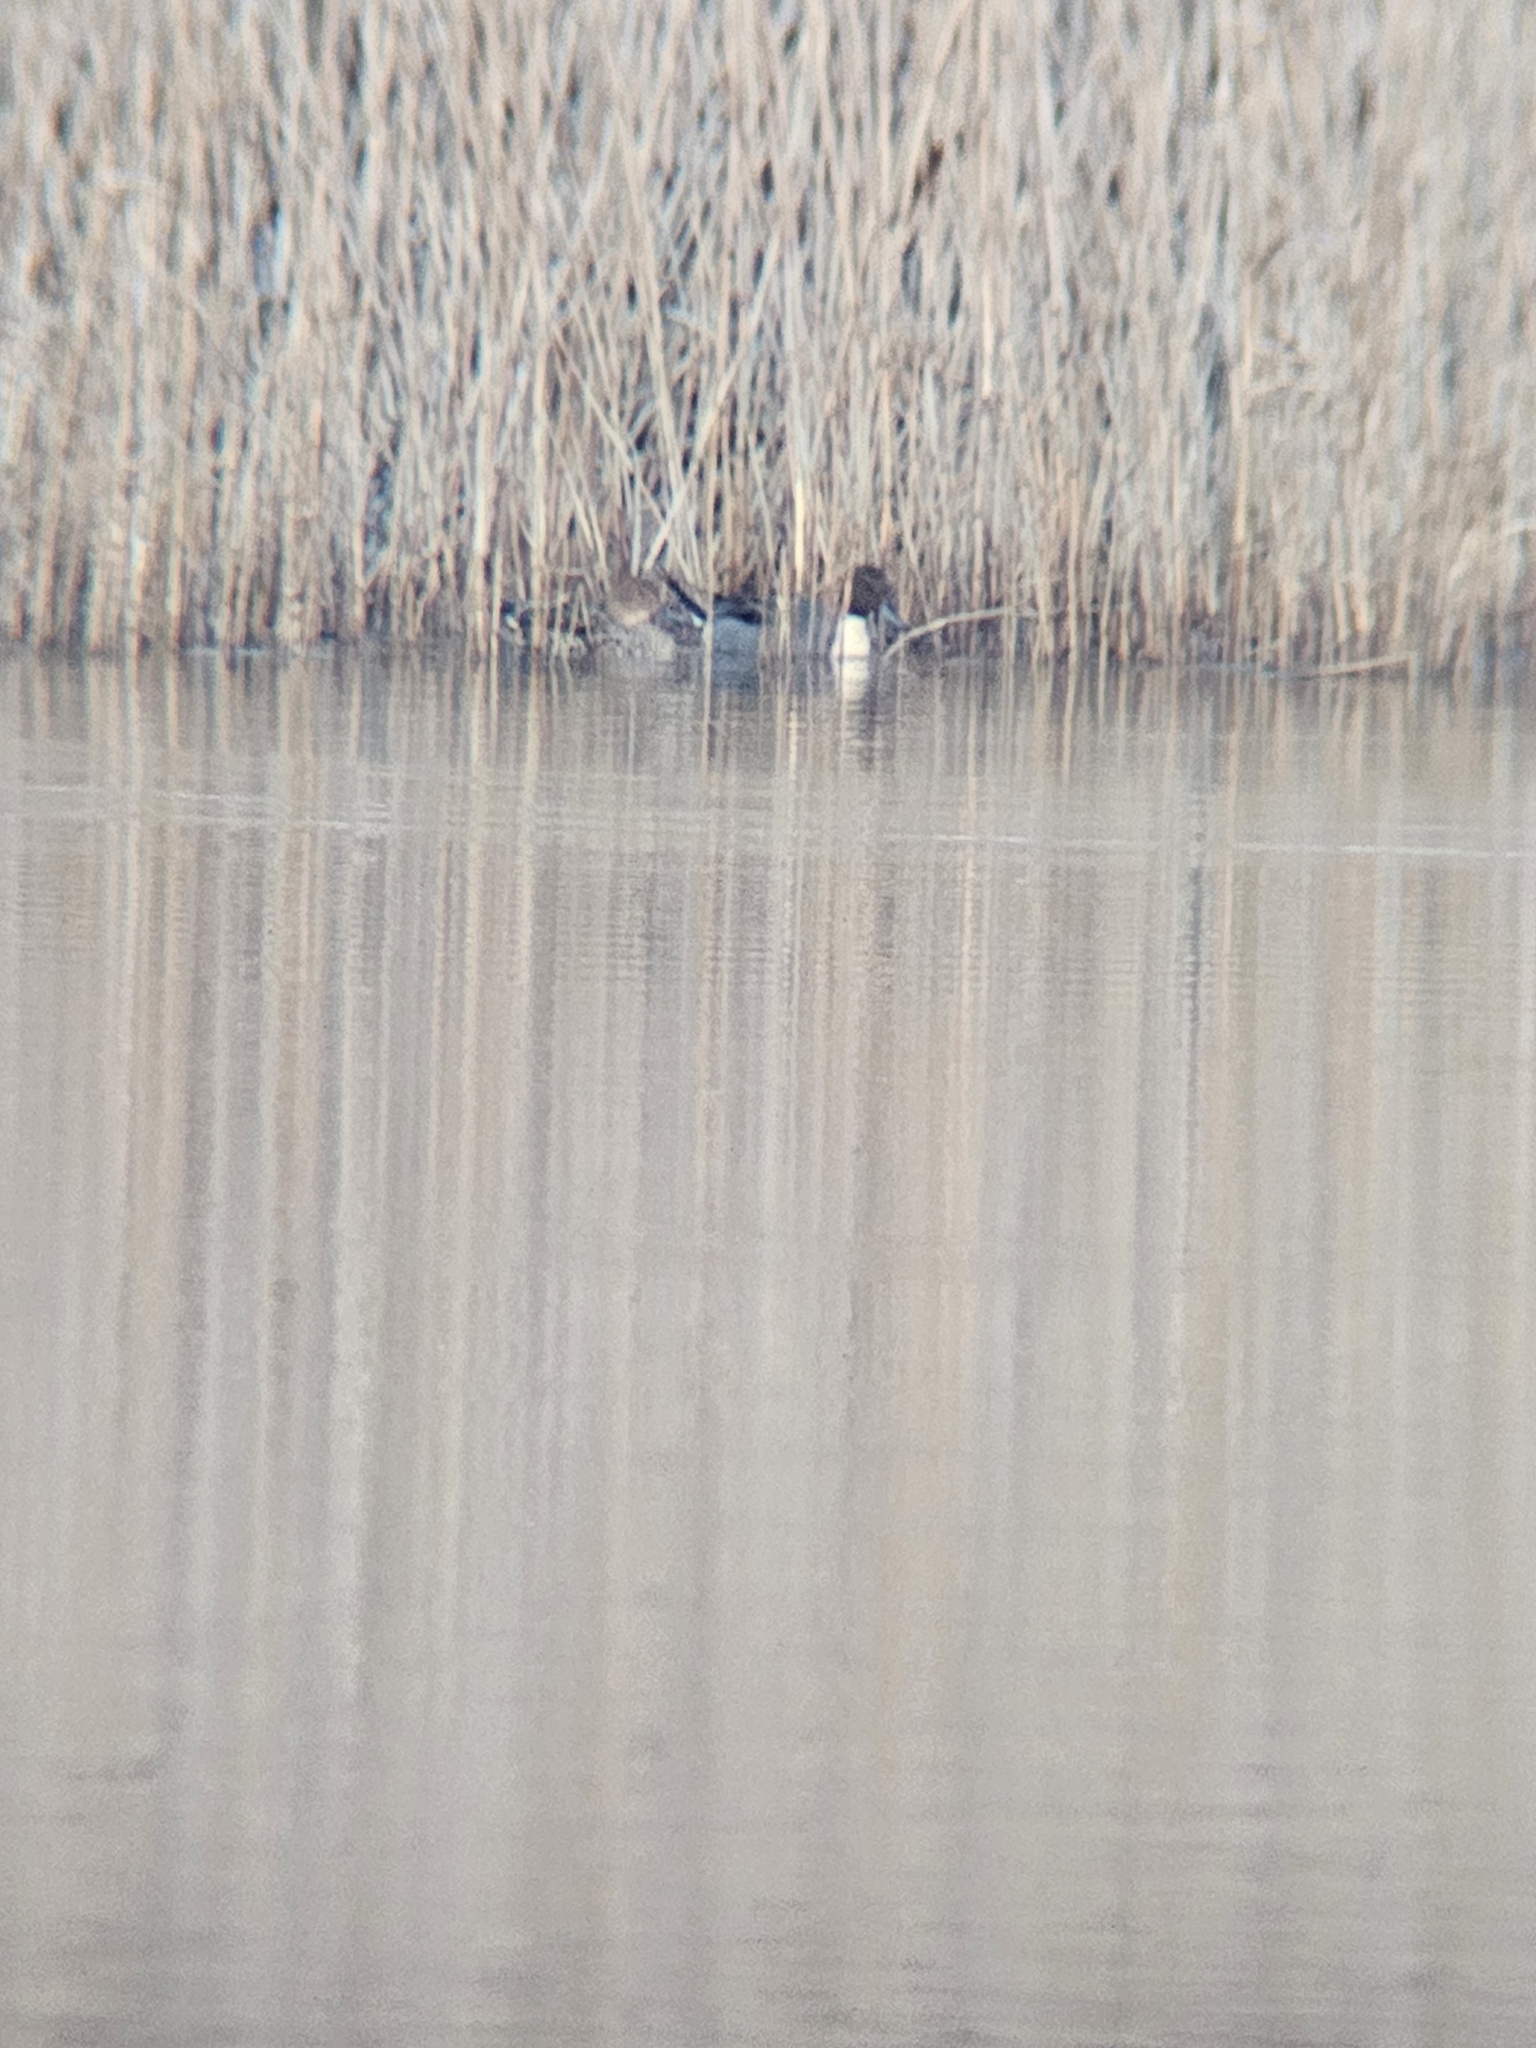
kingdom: Animalia
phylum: Chordata
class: Aves
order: Anseriformes
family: Anatidae
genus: Anas
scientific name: Anas acuta
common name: Northern pintail
